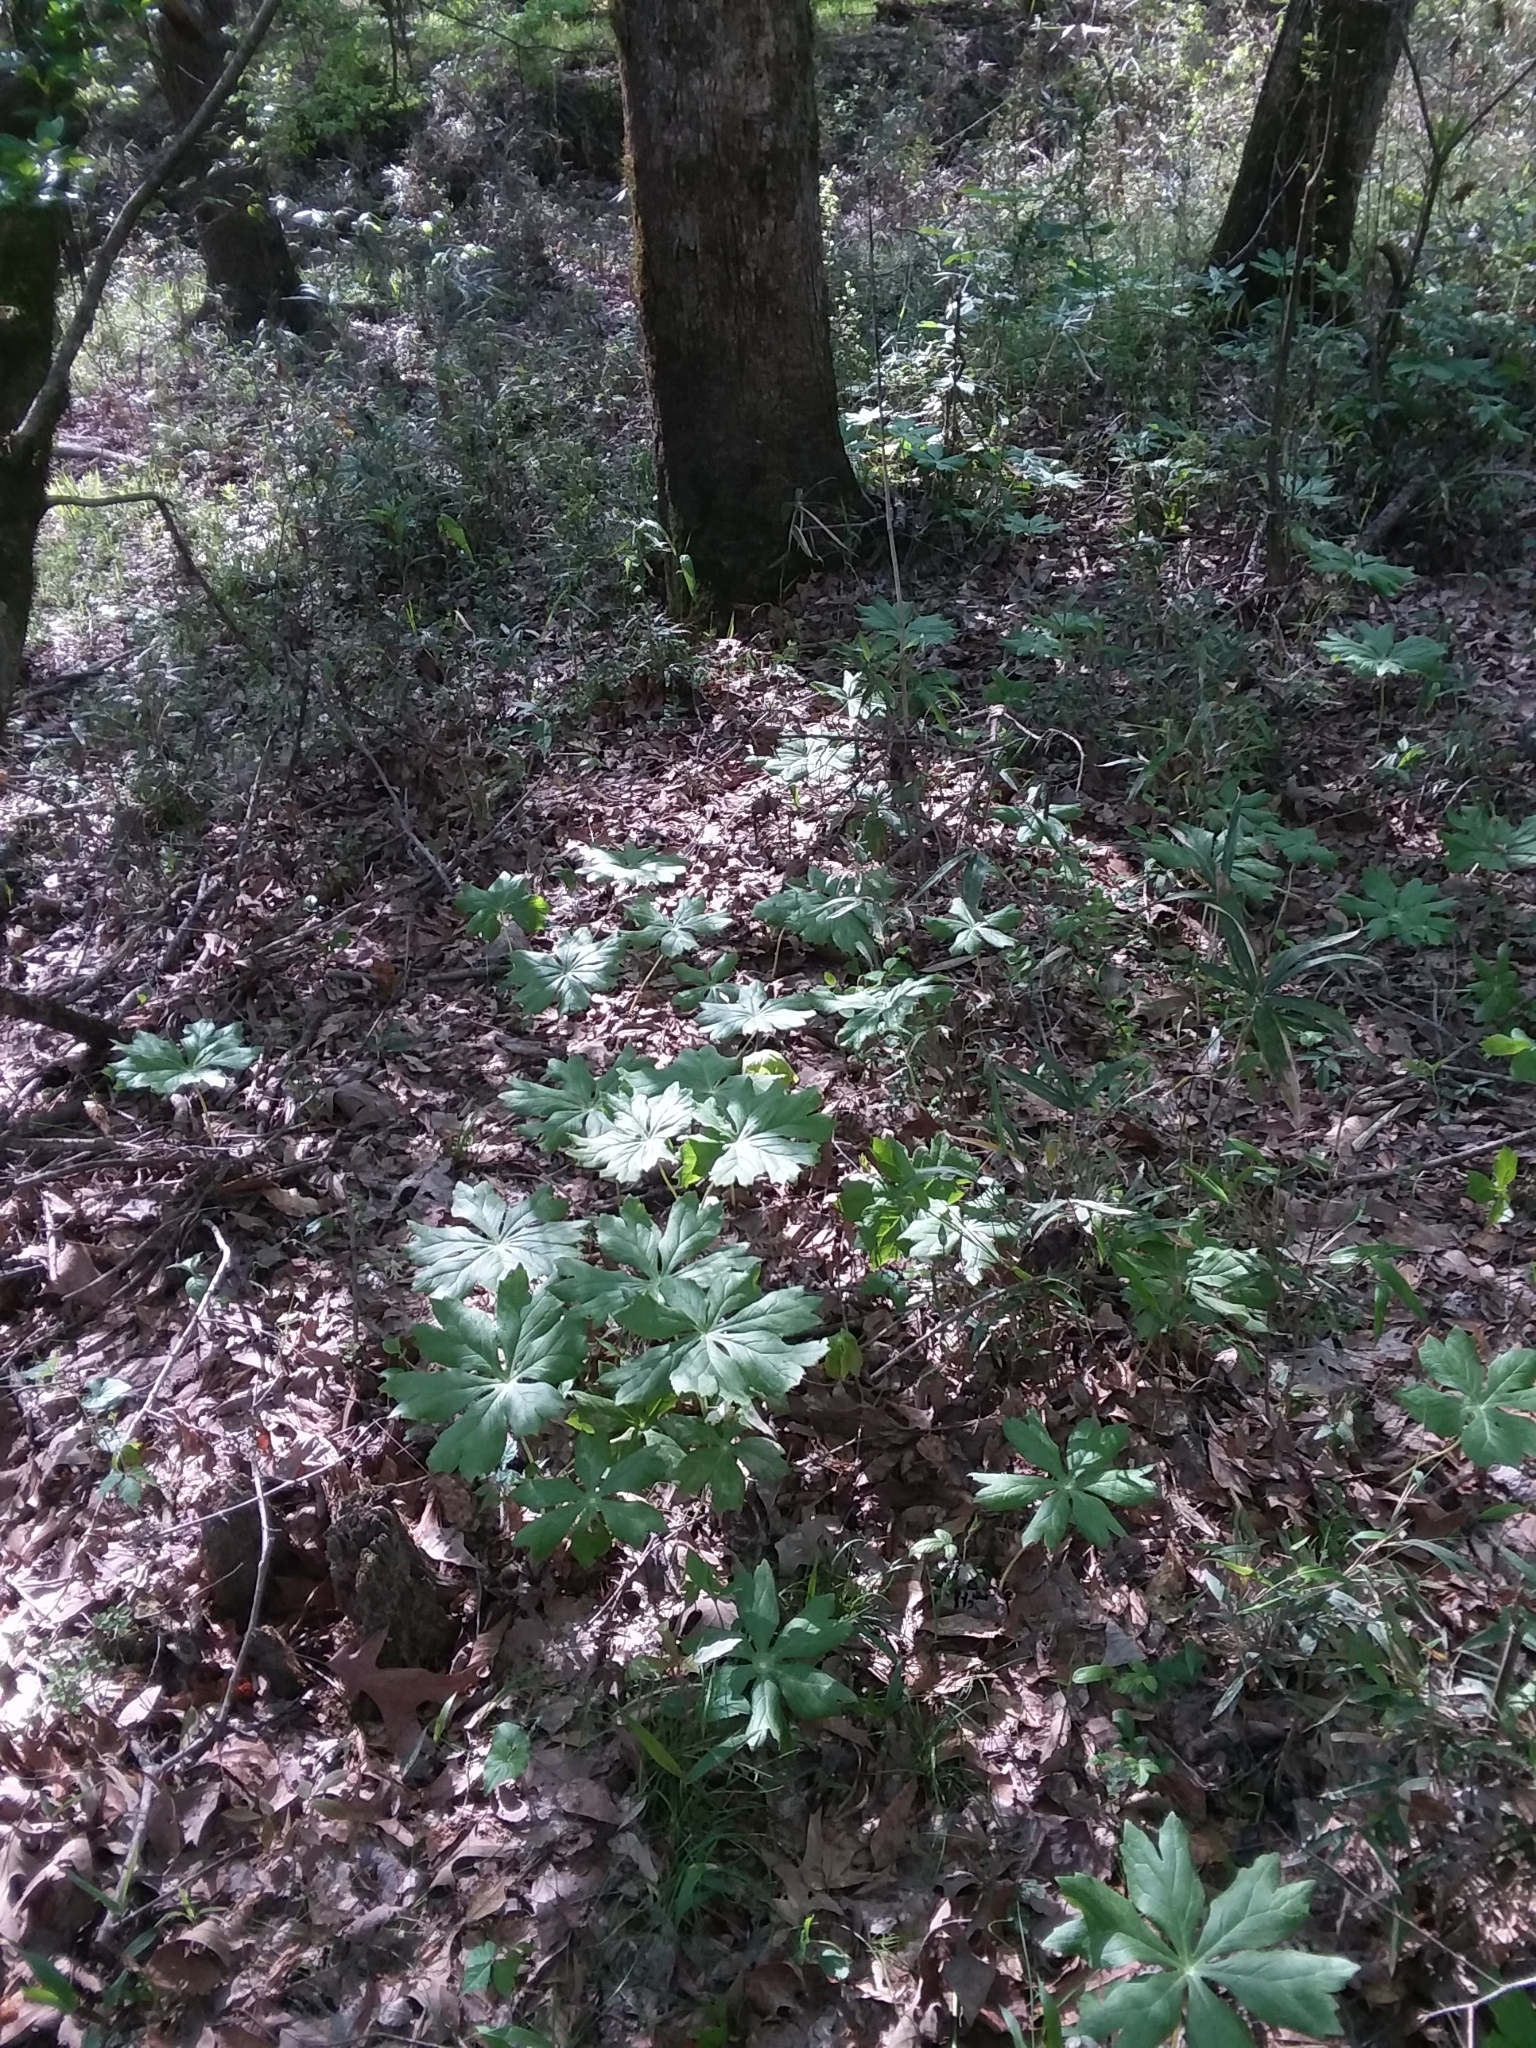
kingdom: Plantae
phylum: Tracheophyta
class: Magnoliopsida
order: Ranunculales
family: Berberidaceae
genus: Podophyllum
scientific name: Podophyllum peltatum
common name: Wild mandrake
